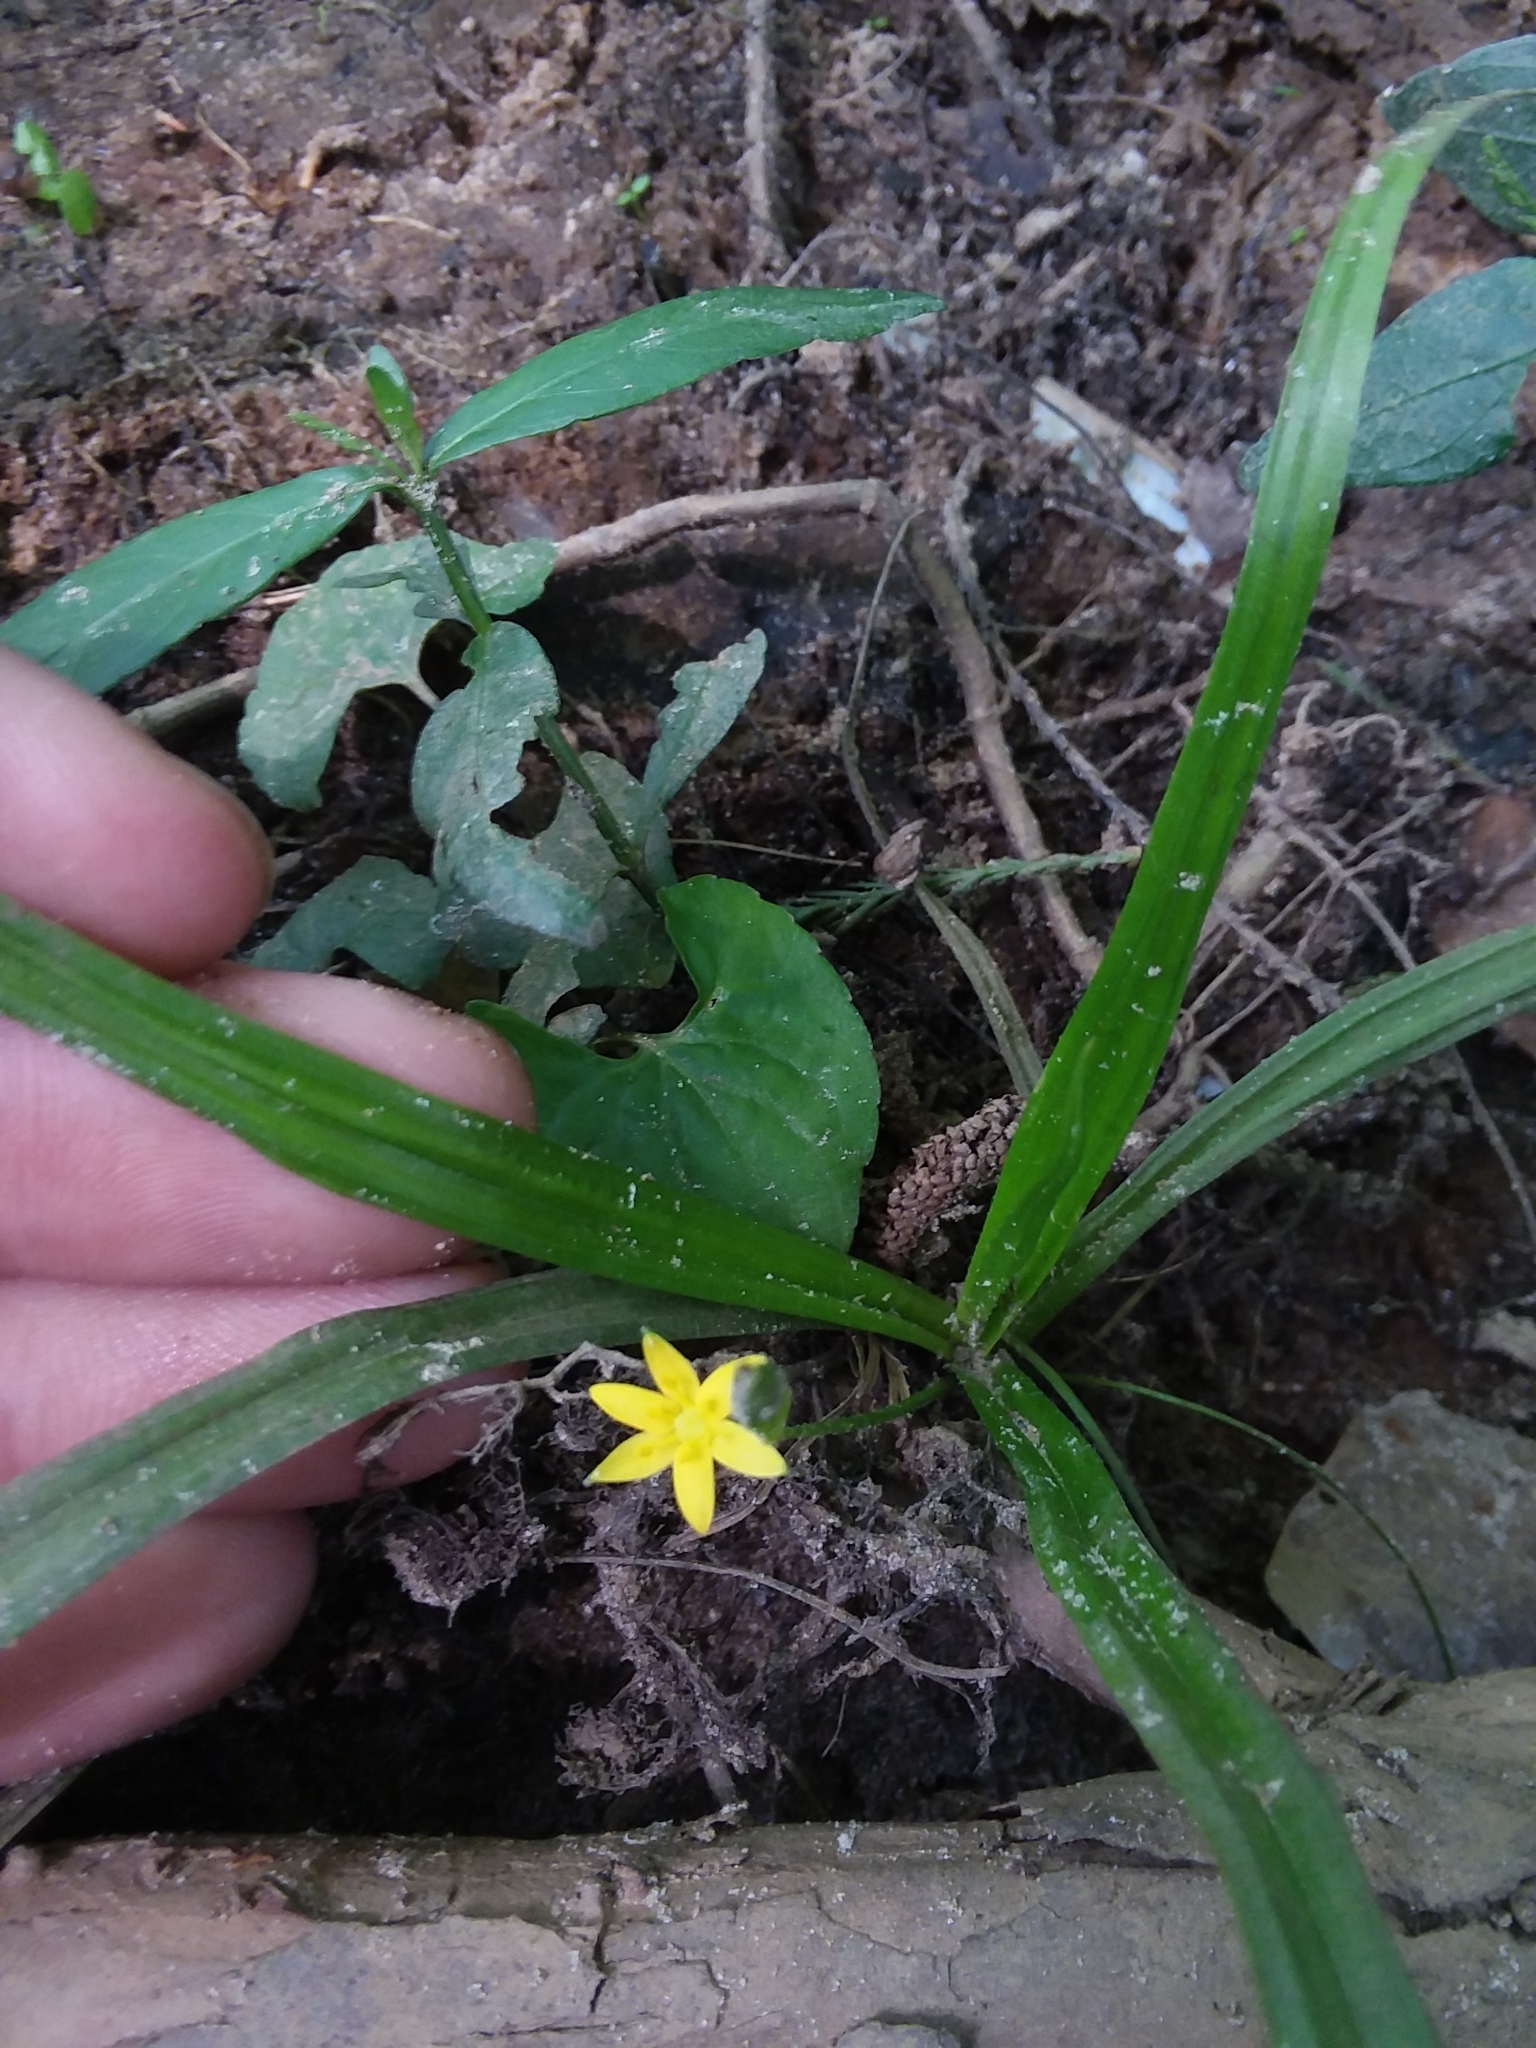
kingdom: Plantae
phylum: Tracheophyta
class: Liliopsida
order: Asparagales
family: Hypoxidaceae
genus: Hypoxis
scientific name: Hypoxis curtissii
